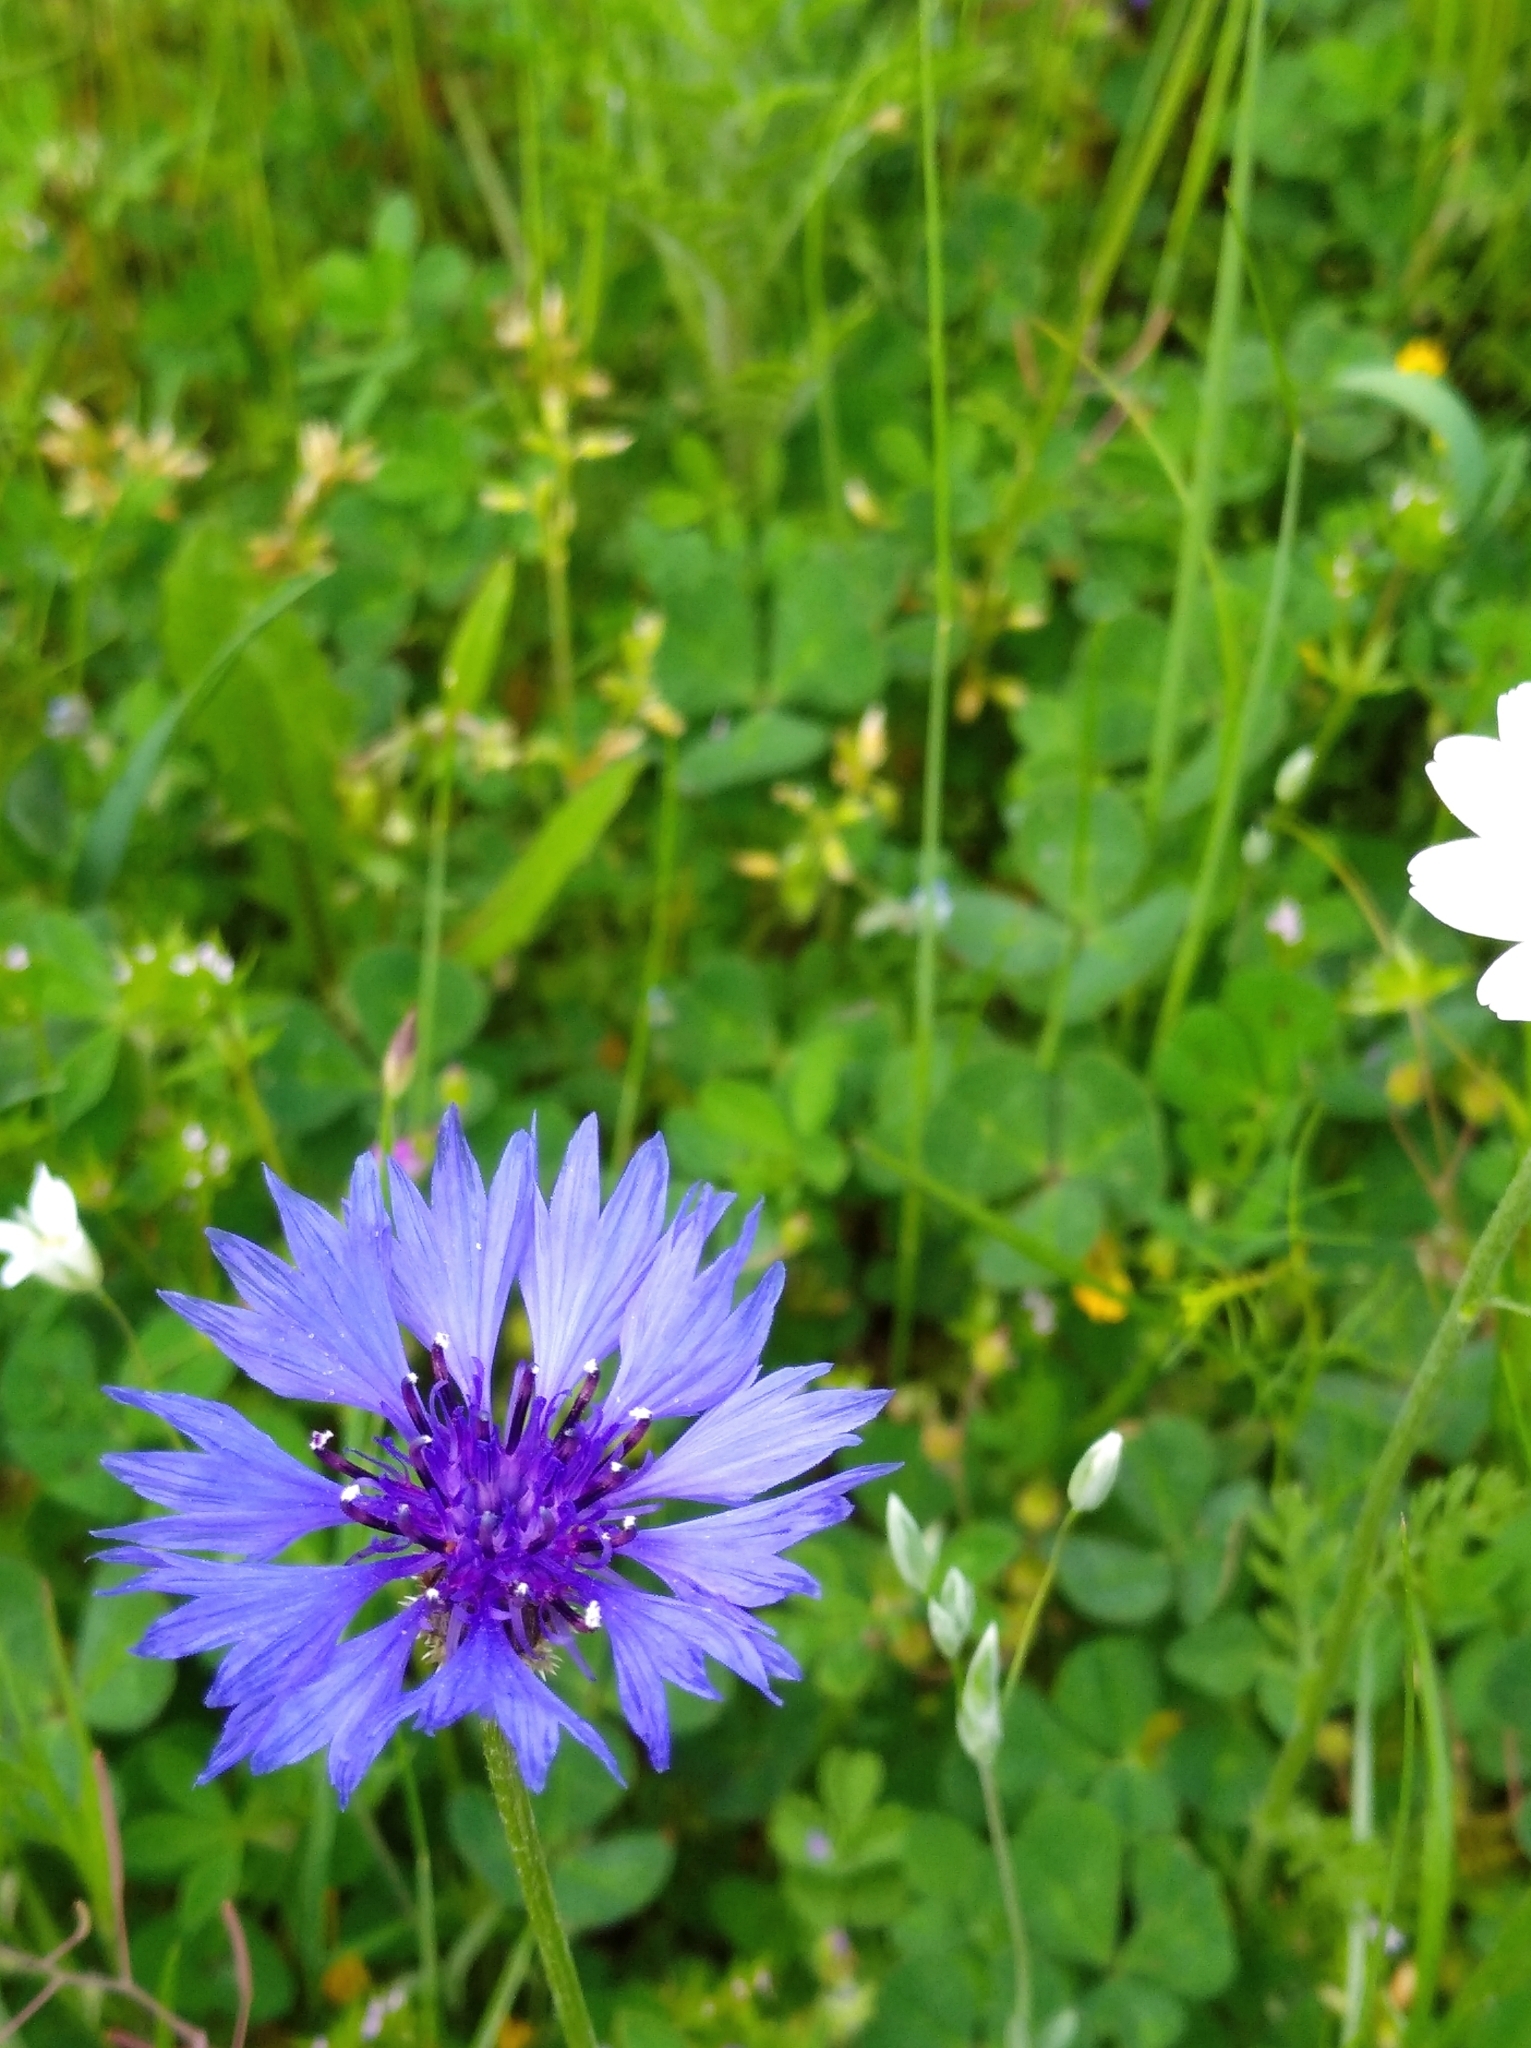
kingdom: Plantae
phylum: Tracheophyta
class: Magnoliopsida
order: Asterales
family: Asteraceae
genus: Centaurea
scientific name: Centaurea cyanus
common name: Cornflower
